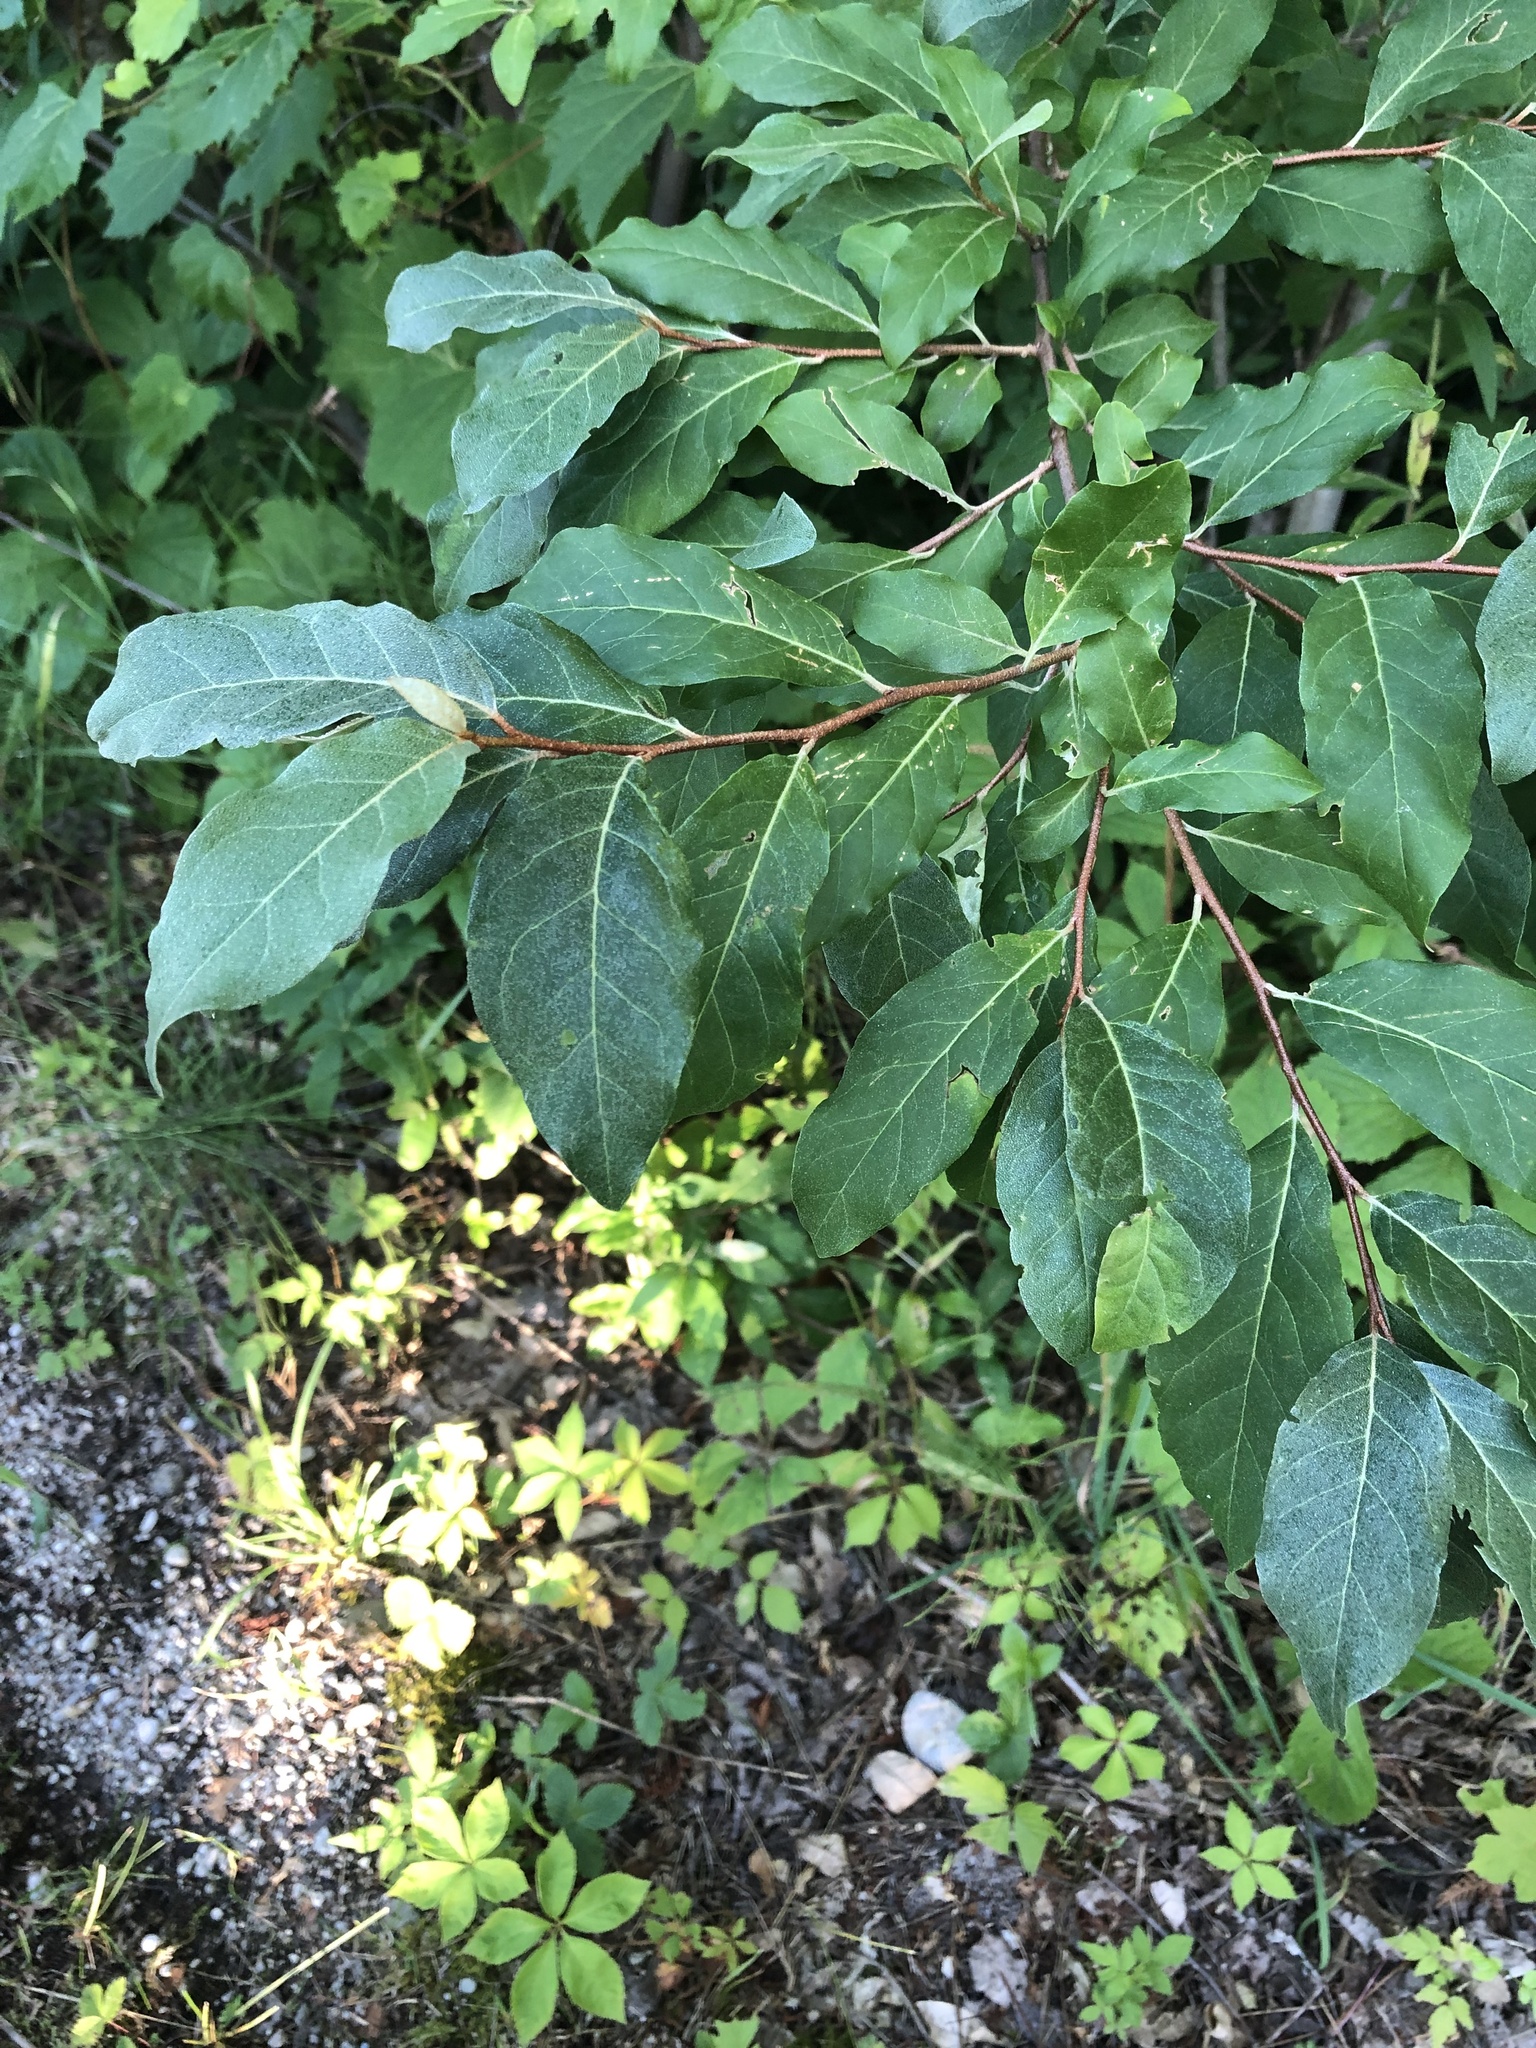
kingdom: Plantae
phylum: Tracheophyta
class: Magnoliopsida
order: Rosales
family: Elaeagnaceae
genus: Elaeagnus
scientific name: Elaeagnus umbellata
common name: Autumn olive
